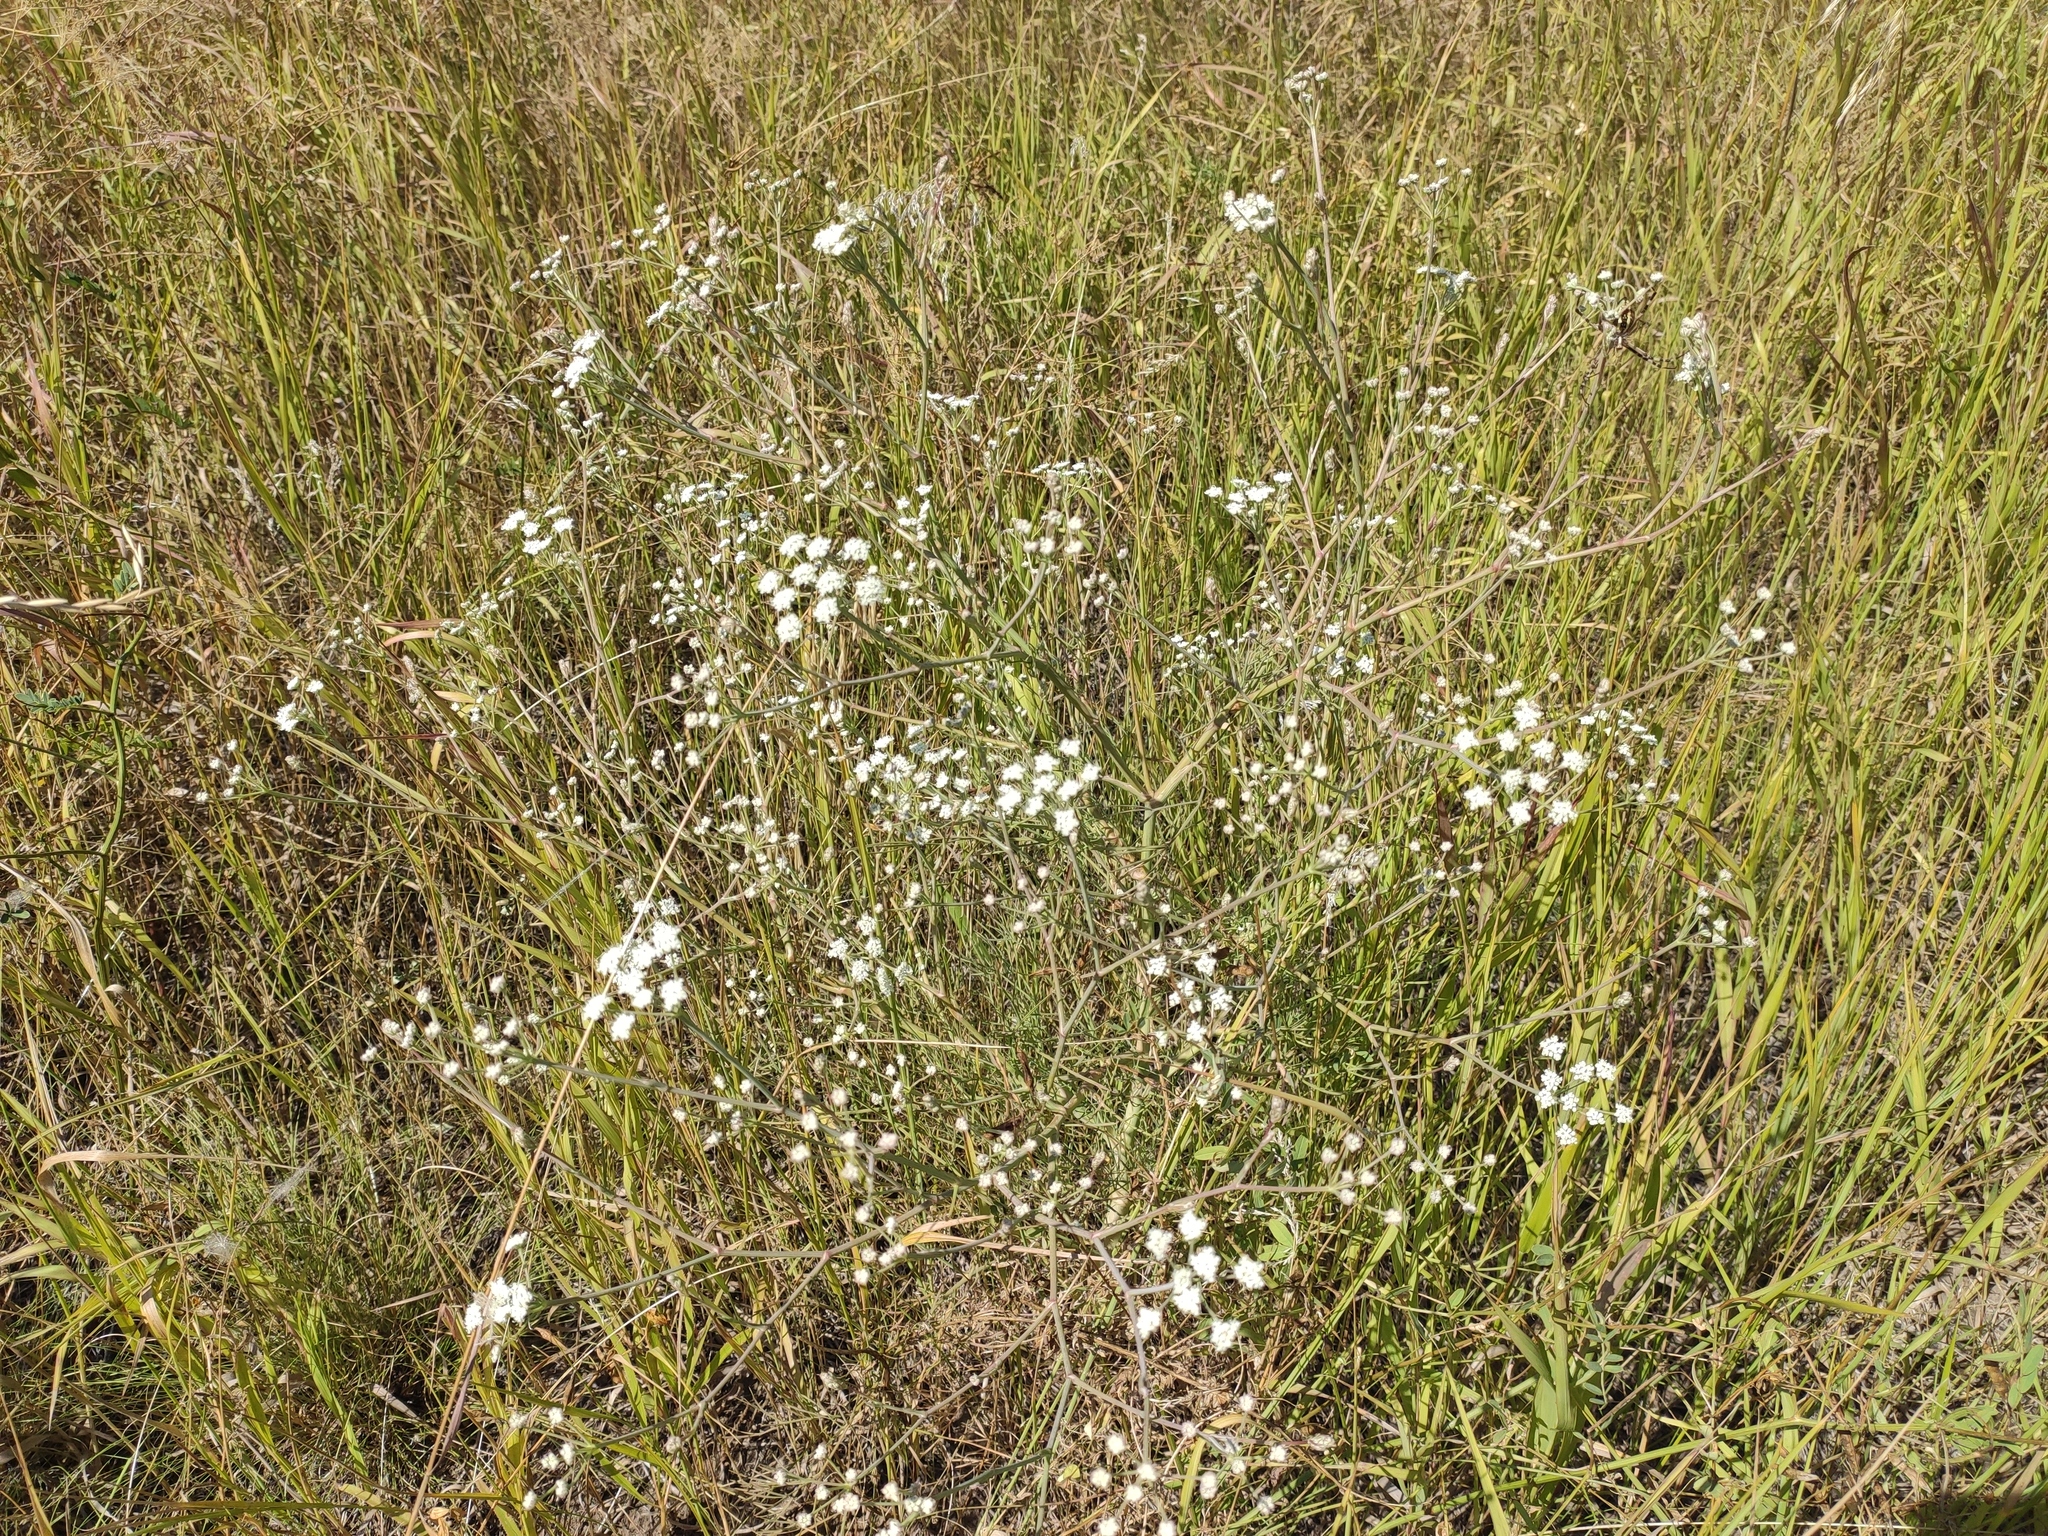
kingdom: Plantae
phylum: Tracheophyta
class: Magnoliopsida
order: Apiales
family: Apiaceae
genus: Seseli
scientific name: Seseli arenarium
